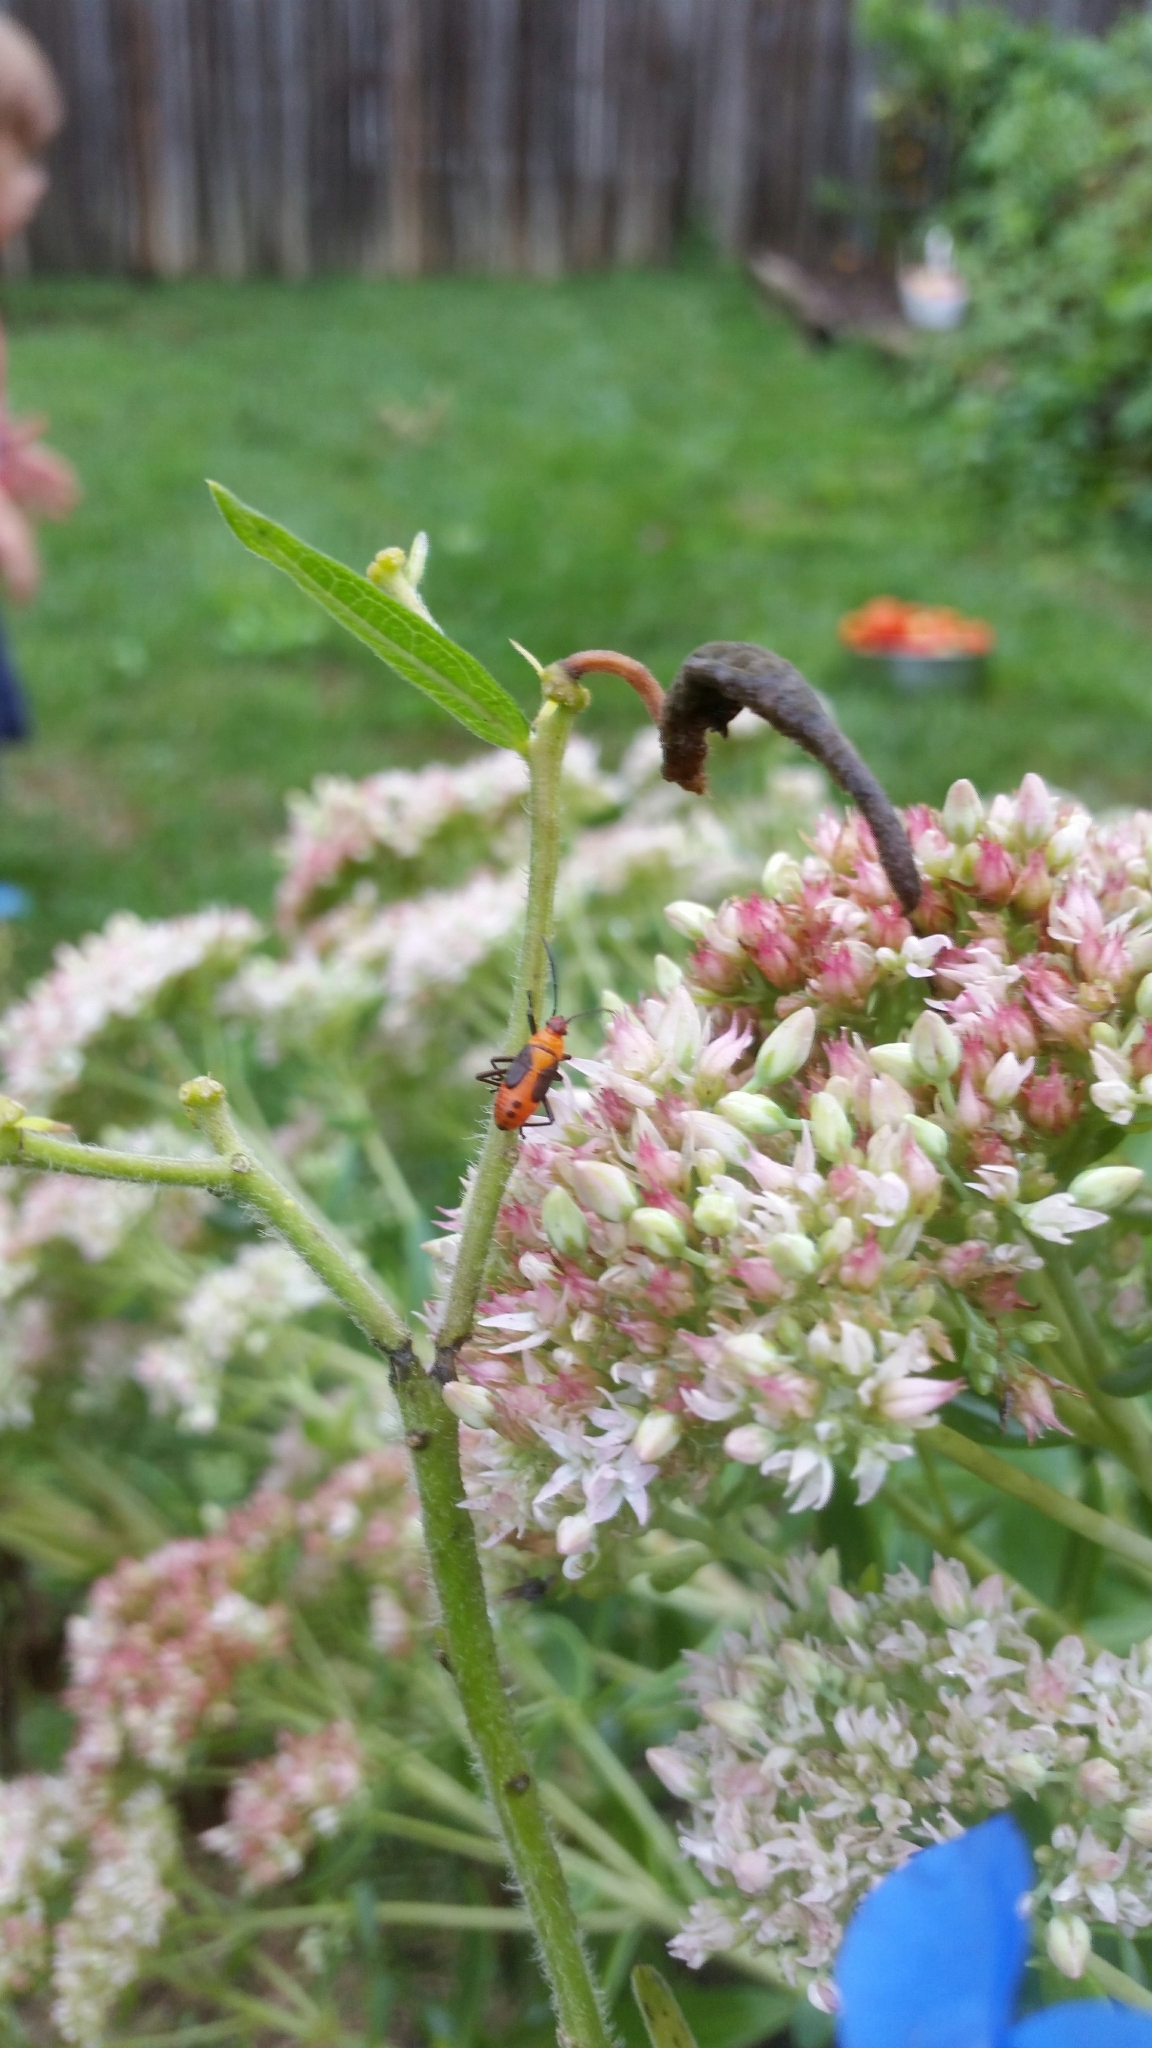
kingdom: Animalia
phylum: Arthropoda
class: Insecta
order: Hemiptera
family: Lygaeidae
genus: Oncopeltus
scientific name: Oncopeltus fasciatus
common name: Large milkweed bug
